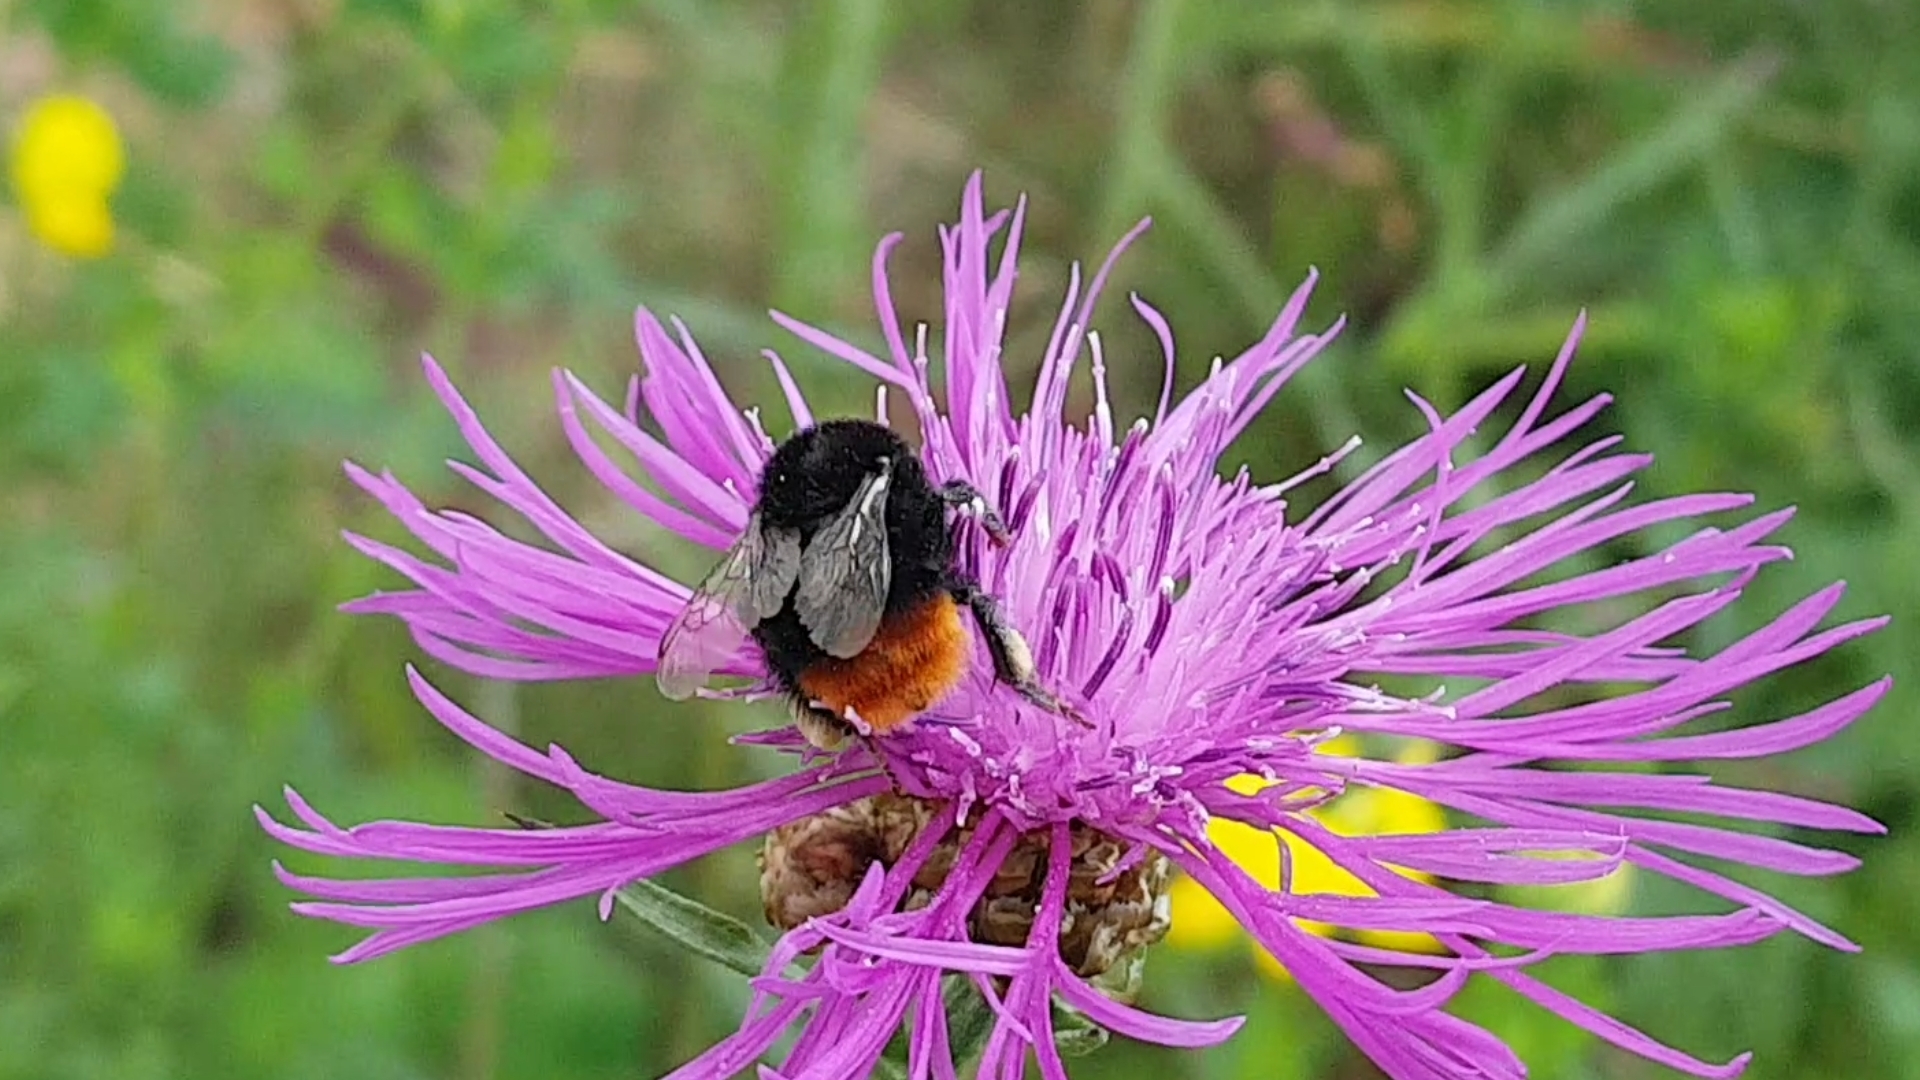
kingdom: Animalia
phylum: Arthropoda
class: Insecta
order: Hymenoptera
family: Apidae
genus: Bombus
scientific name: Bombus lapidarius
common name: Large red-tailed humble-bee
